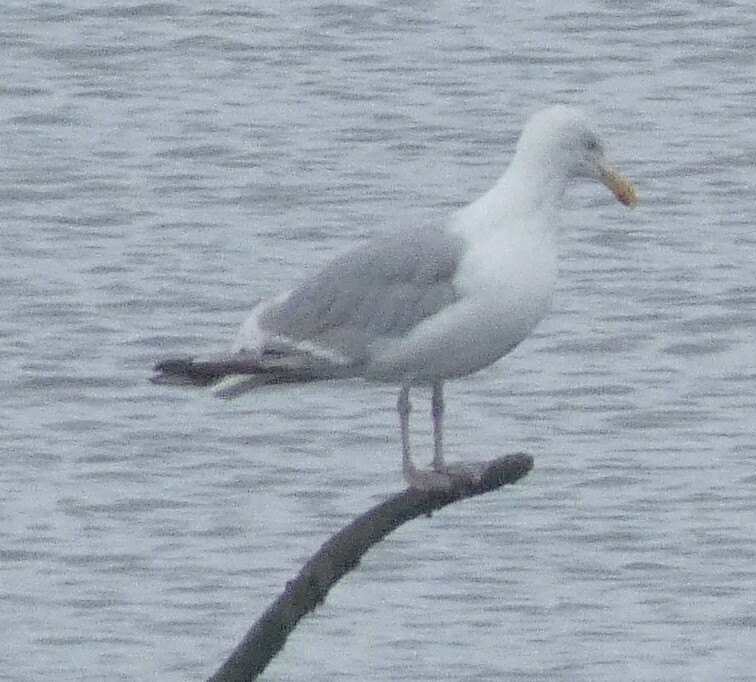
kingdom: Animalia
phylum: Chordata
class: Aves
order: Charadriiformes
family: Laridae
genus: Larus
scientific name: Larus argentatus
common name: Herring gull
